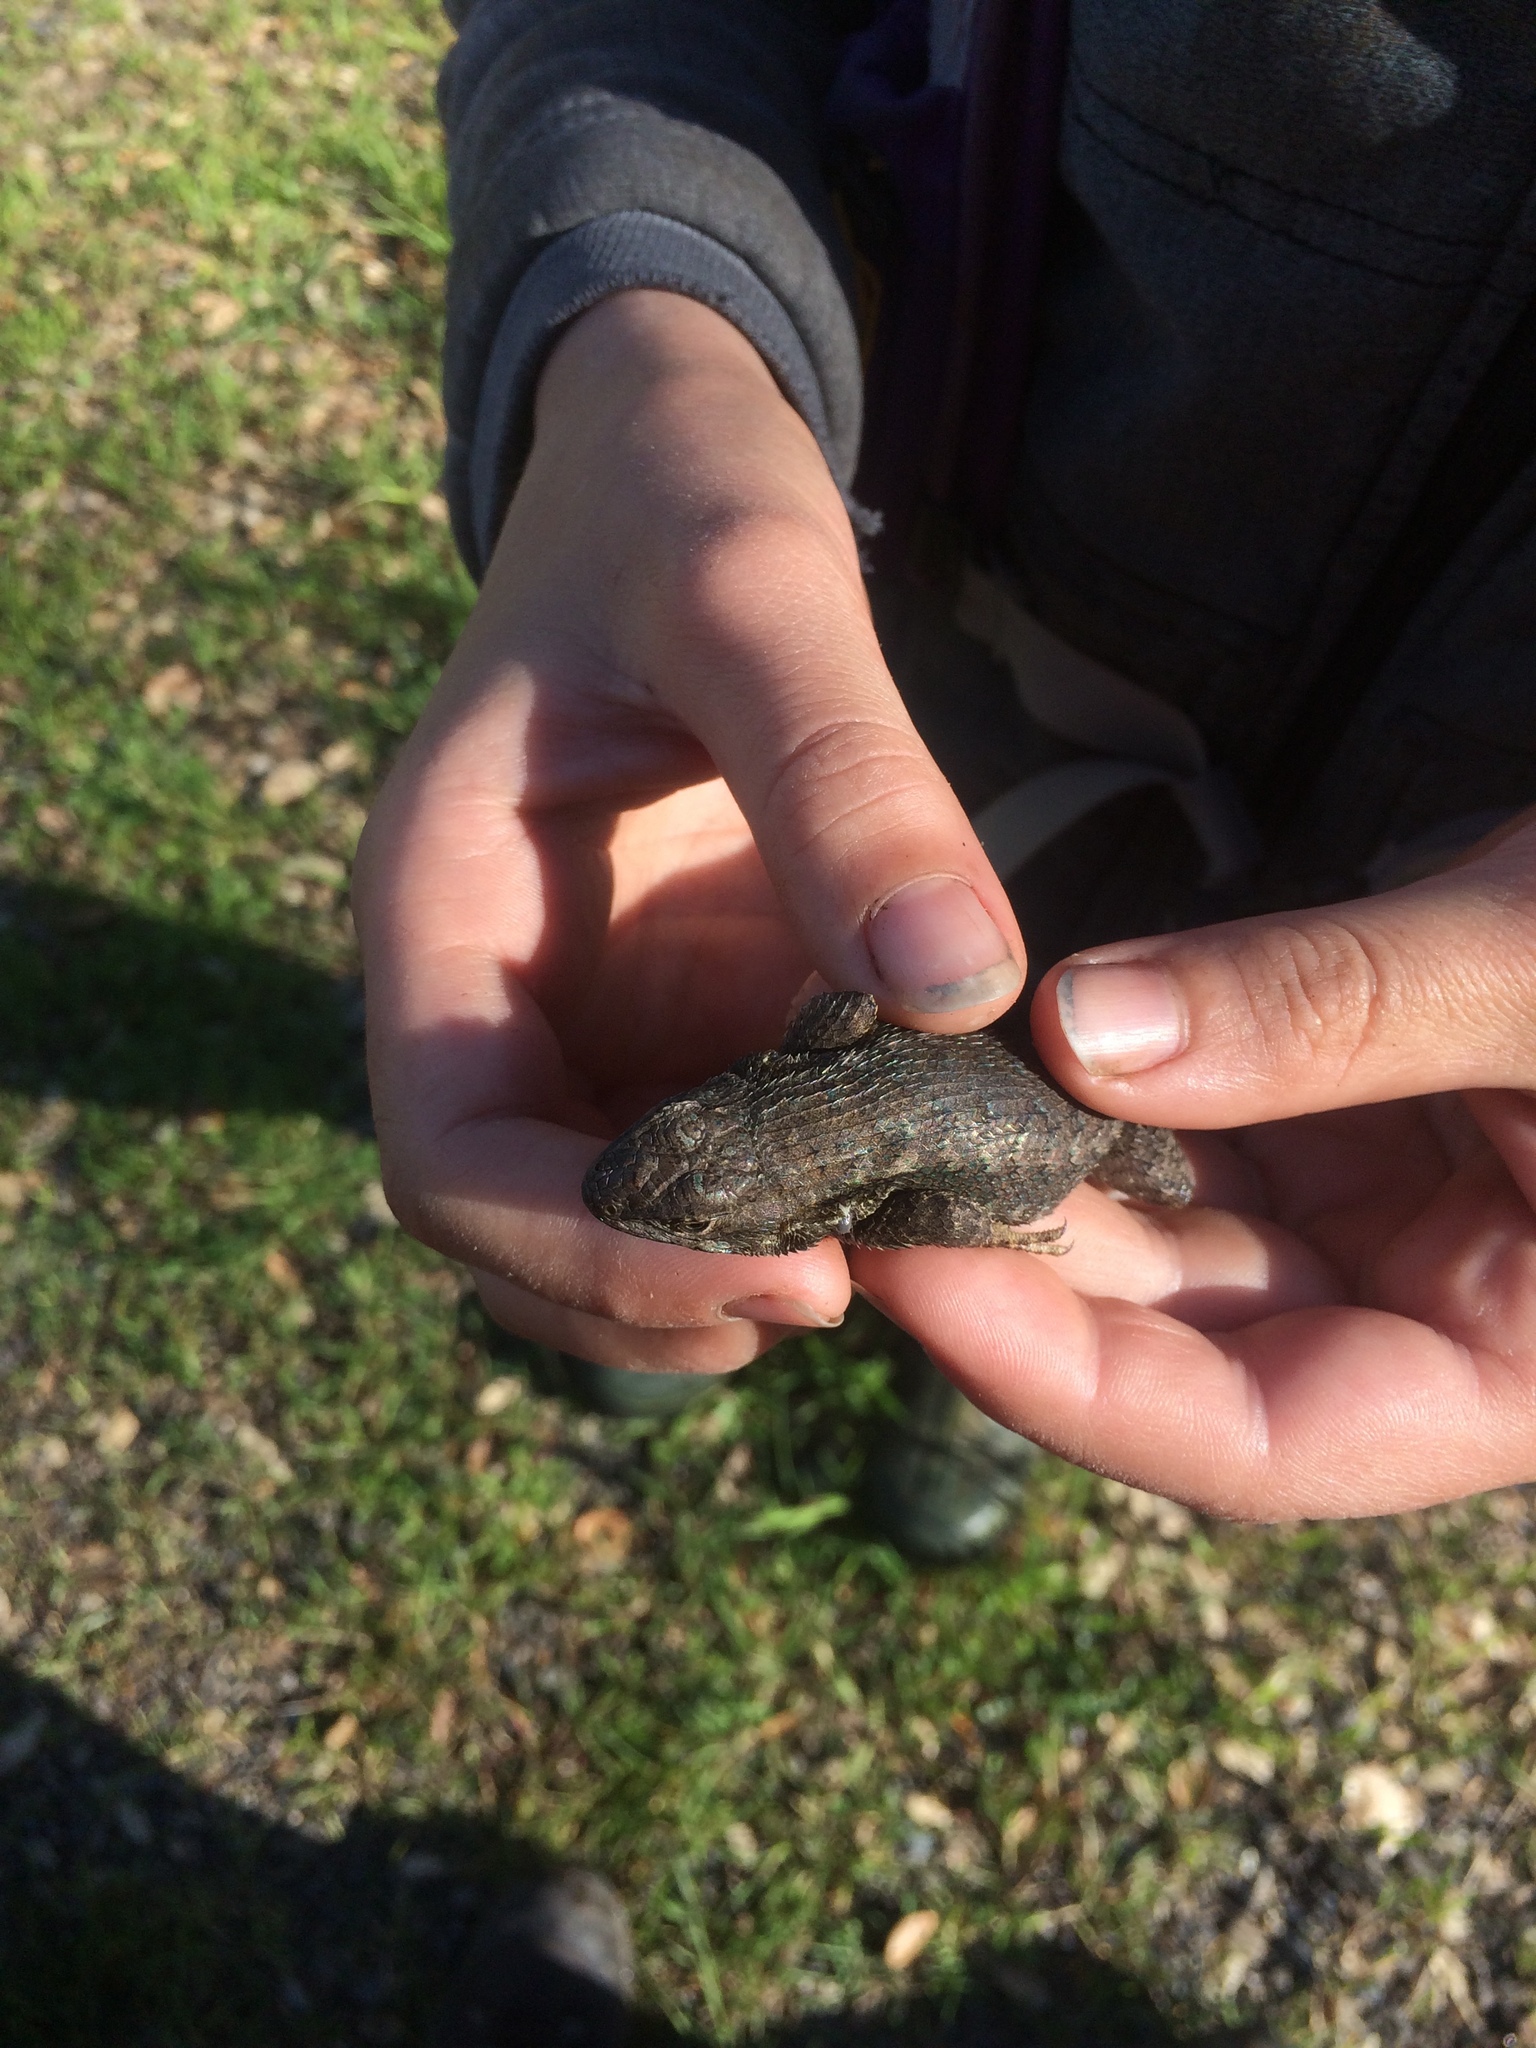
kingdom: Animalia
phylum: Chordata
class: Squamata
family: Phrynosomatidae
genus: Sceloporus
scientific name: Sceloporus occidentalis
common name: Western fence lizard
